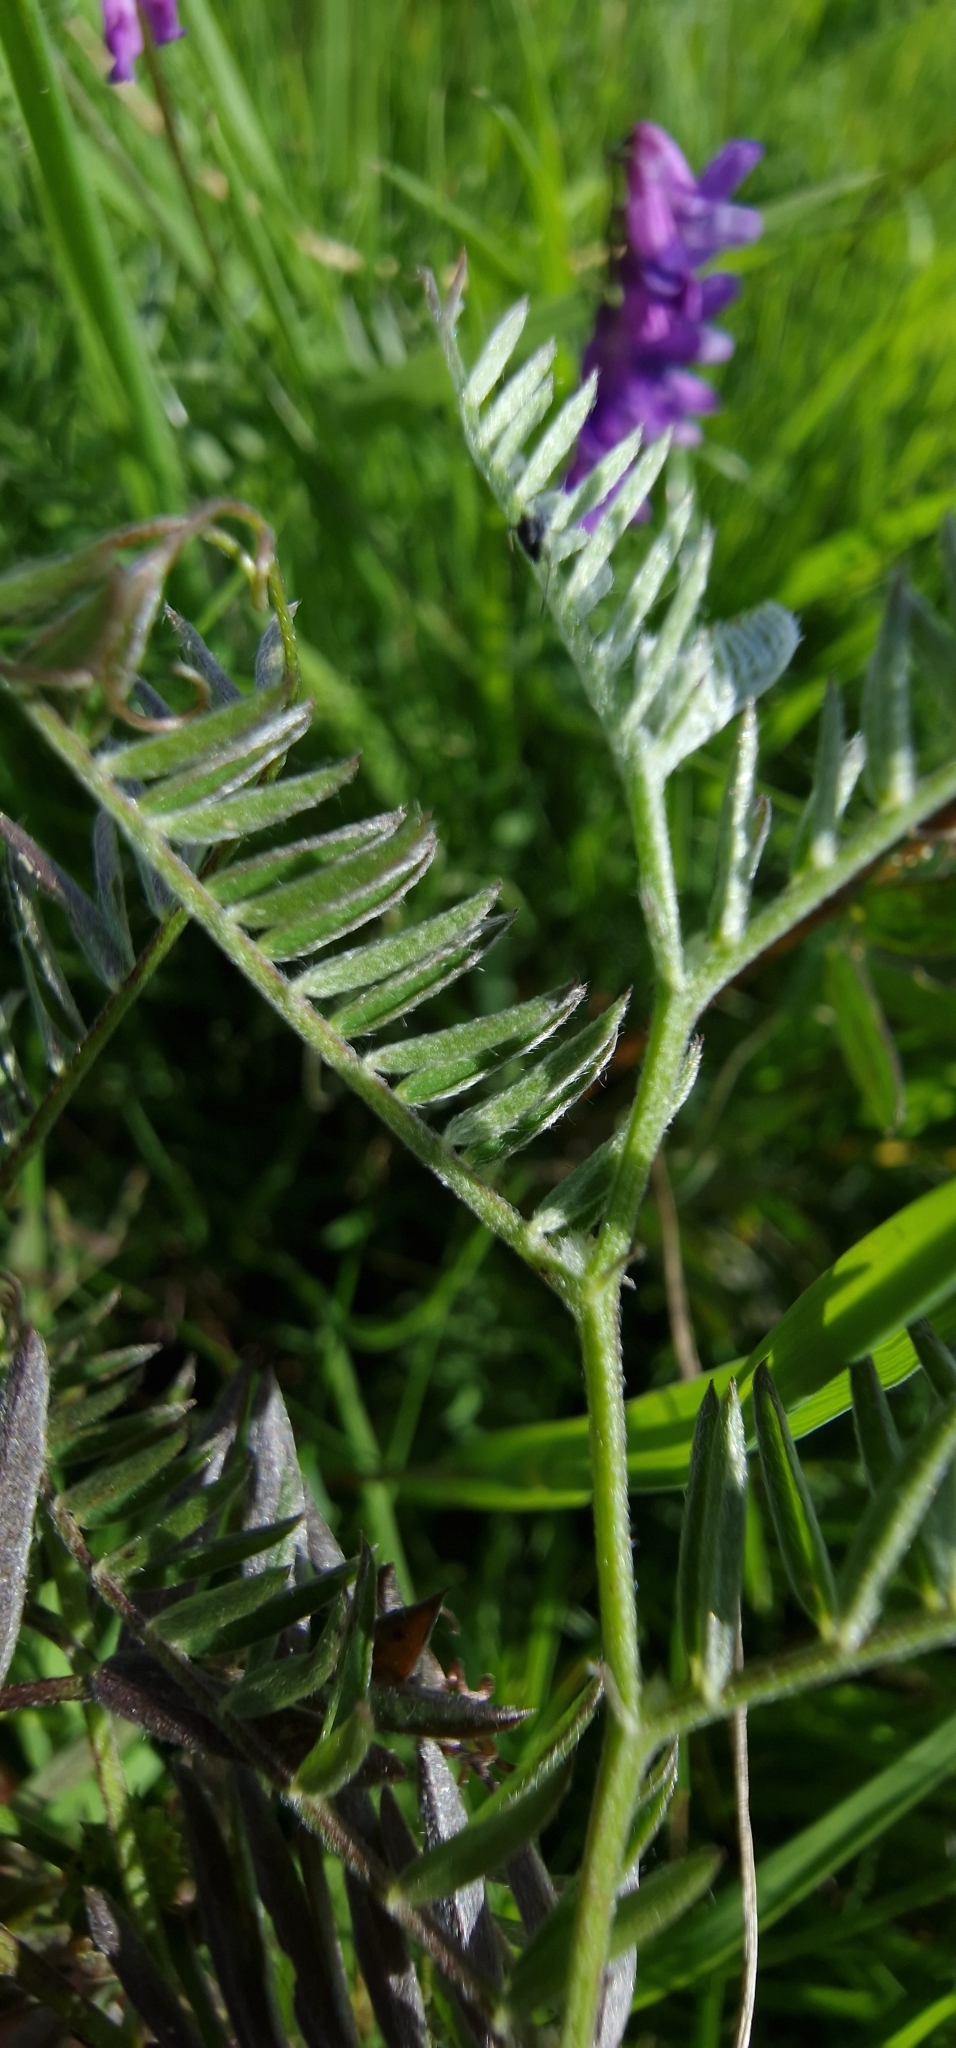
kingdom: Plantae
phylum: Tracheophyta
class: Magnoliopsida
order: Fabales
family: Fabaceae
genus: Vicia
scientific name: Vicia cracca
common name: Bird vetch
